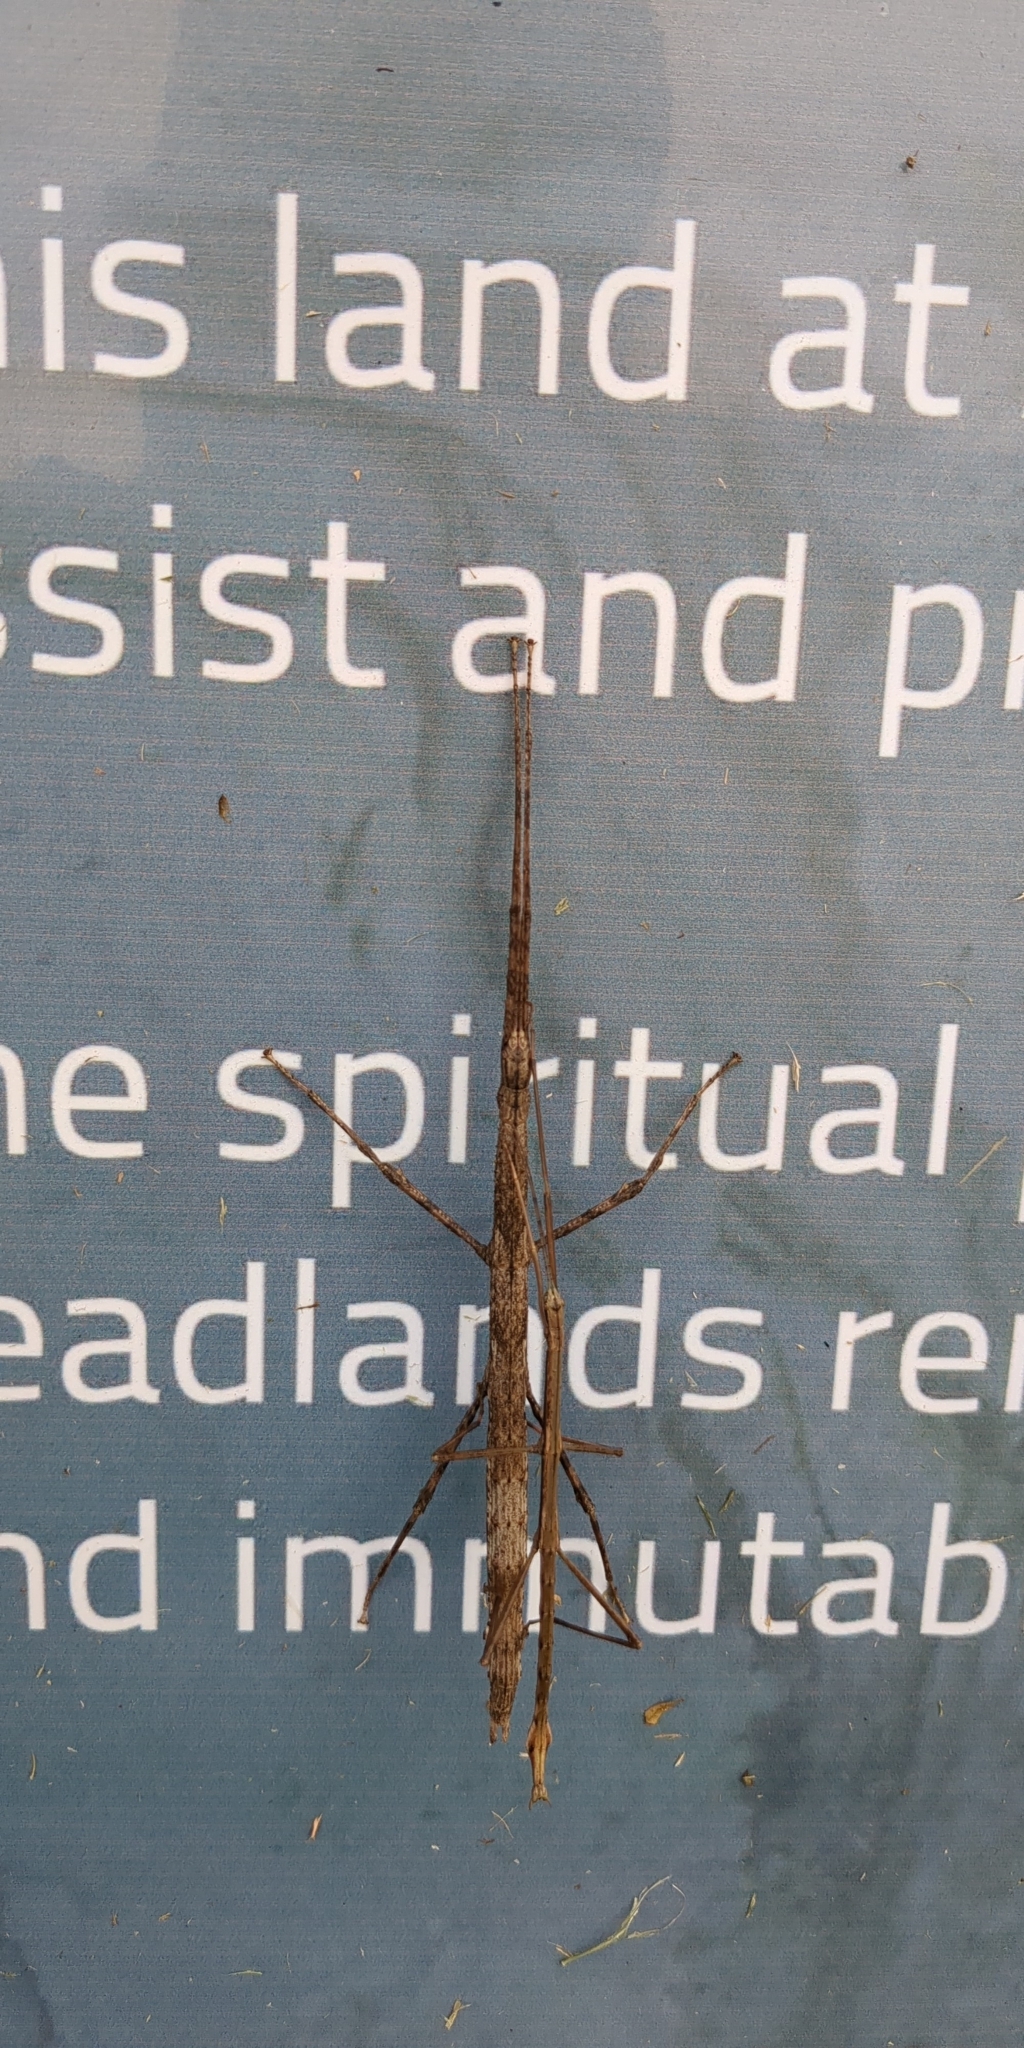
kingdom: Animalia
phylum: Arthropoda
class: Insecta
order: Phasmida
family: Phasmatidae
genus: Clitarchus
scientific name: Clitarchus hookeri
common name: Smooth stick insect
